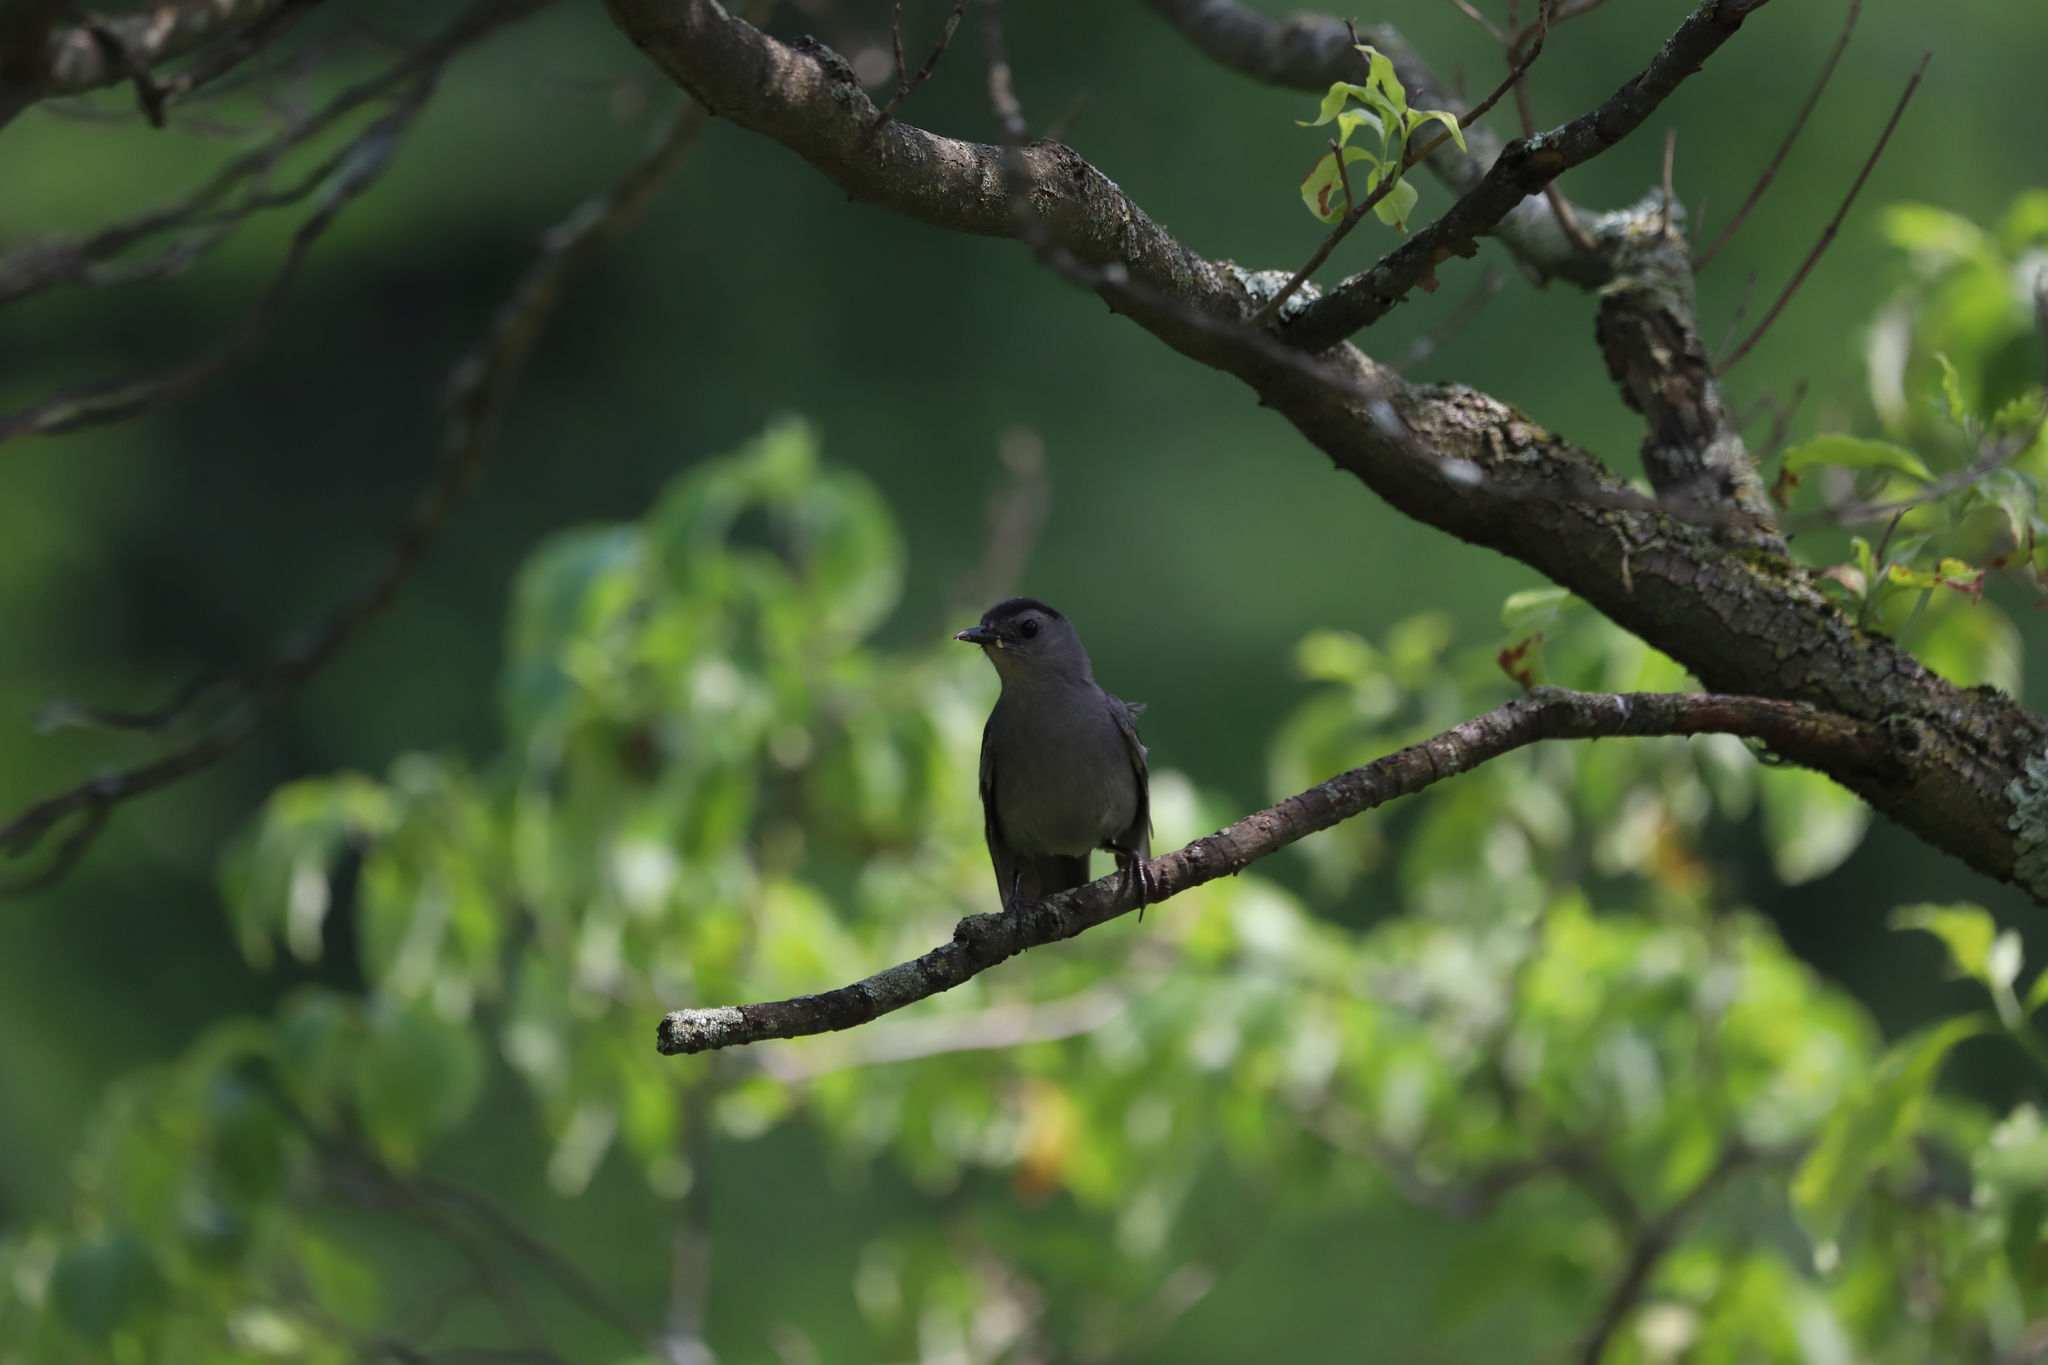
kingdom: Animalia
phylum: Chordata
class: Aves
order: Passeriformes
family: Mimidae
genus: Dumetella
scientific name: Dumetella carolinensis
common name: Gray catbird
